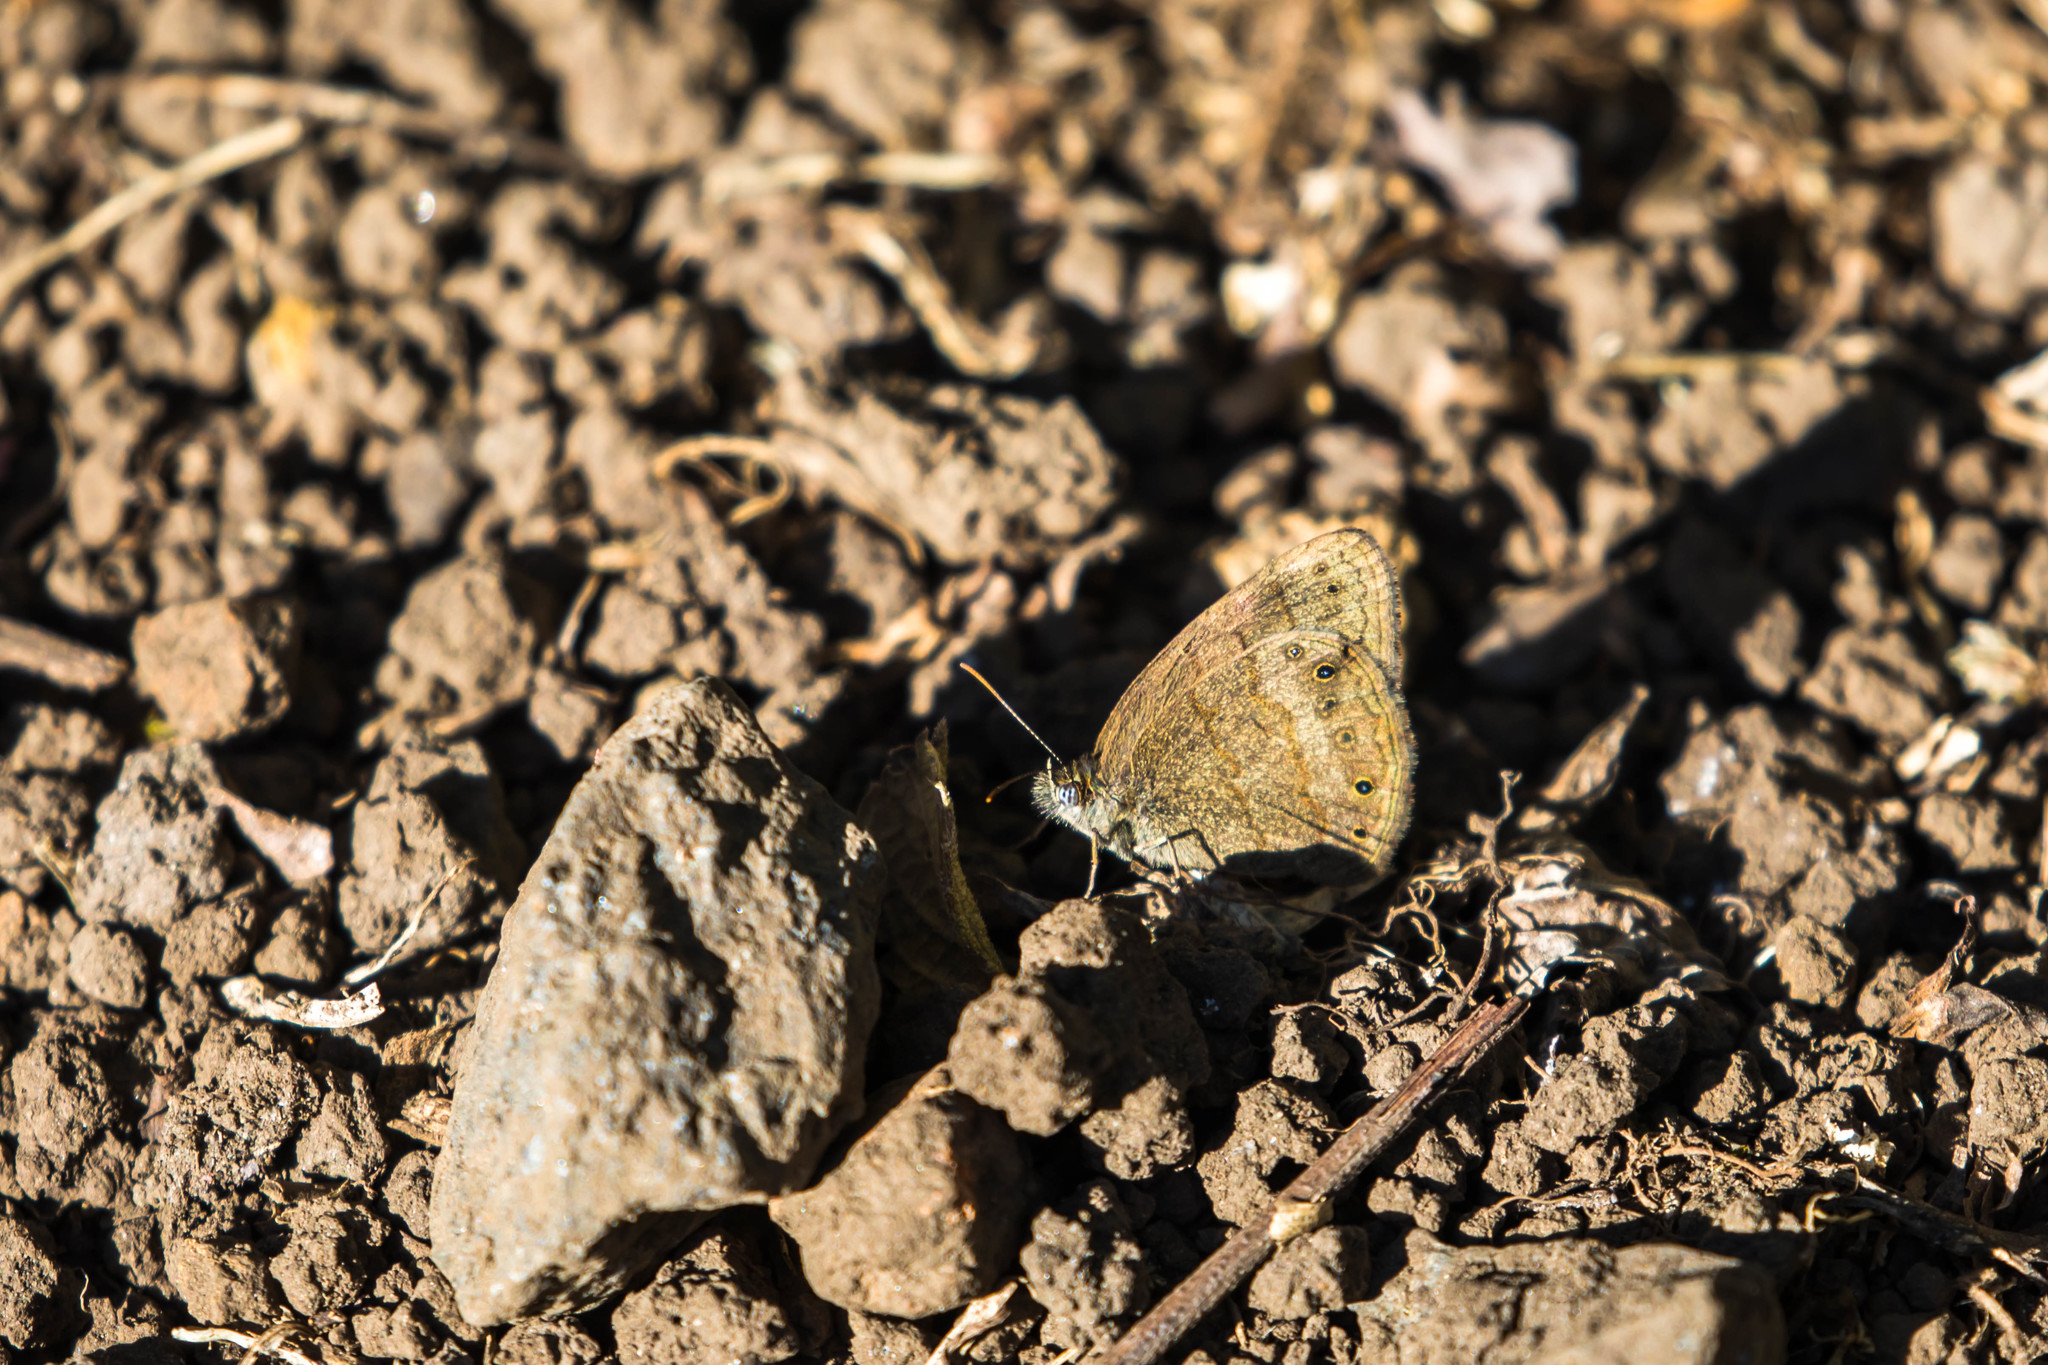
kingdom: Animalia
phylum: Arthropoda
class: Insecta
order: Lepidoptera
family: Nymphalidae
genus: Hermeuptychia
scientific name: Hermeuptychia hermes
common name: Hermes satyr
